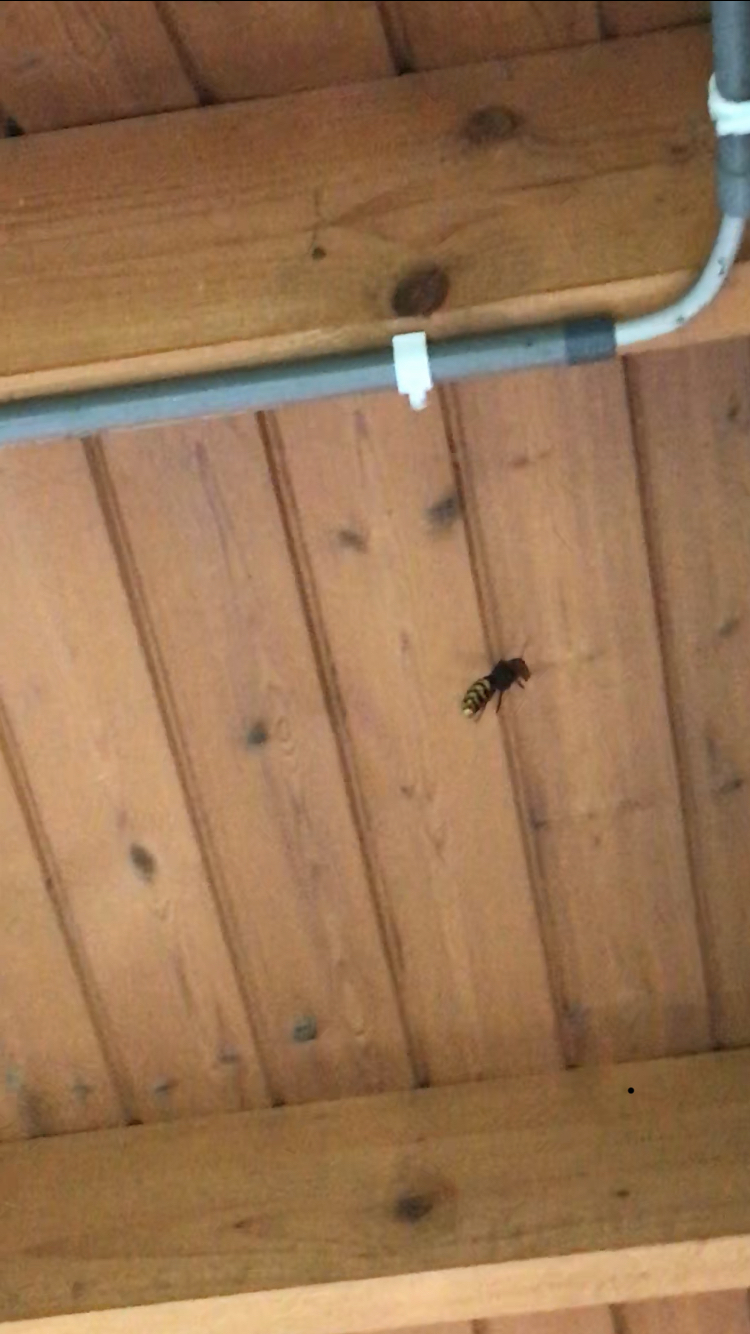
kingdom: Animalia
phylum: Arthropoda
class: Insecta
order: Hymenoptera
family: Vespidae
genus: Vespa
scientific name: Vespa crabro
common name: Hornet
